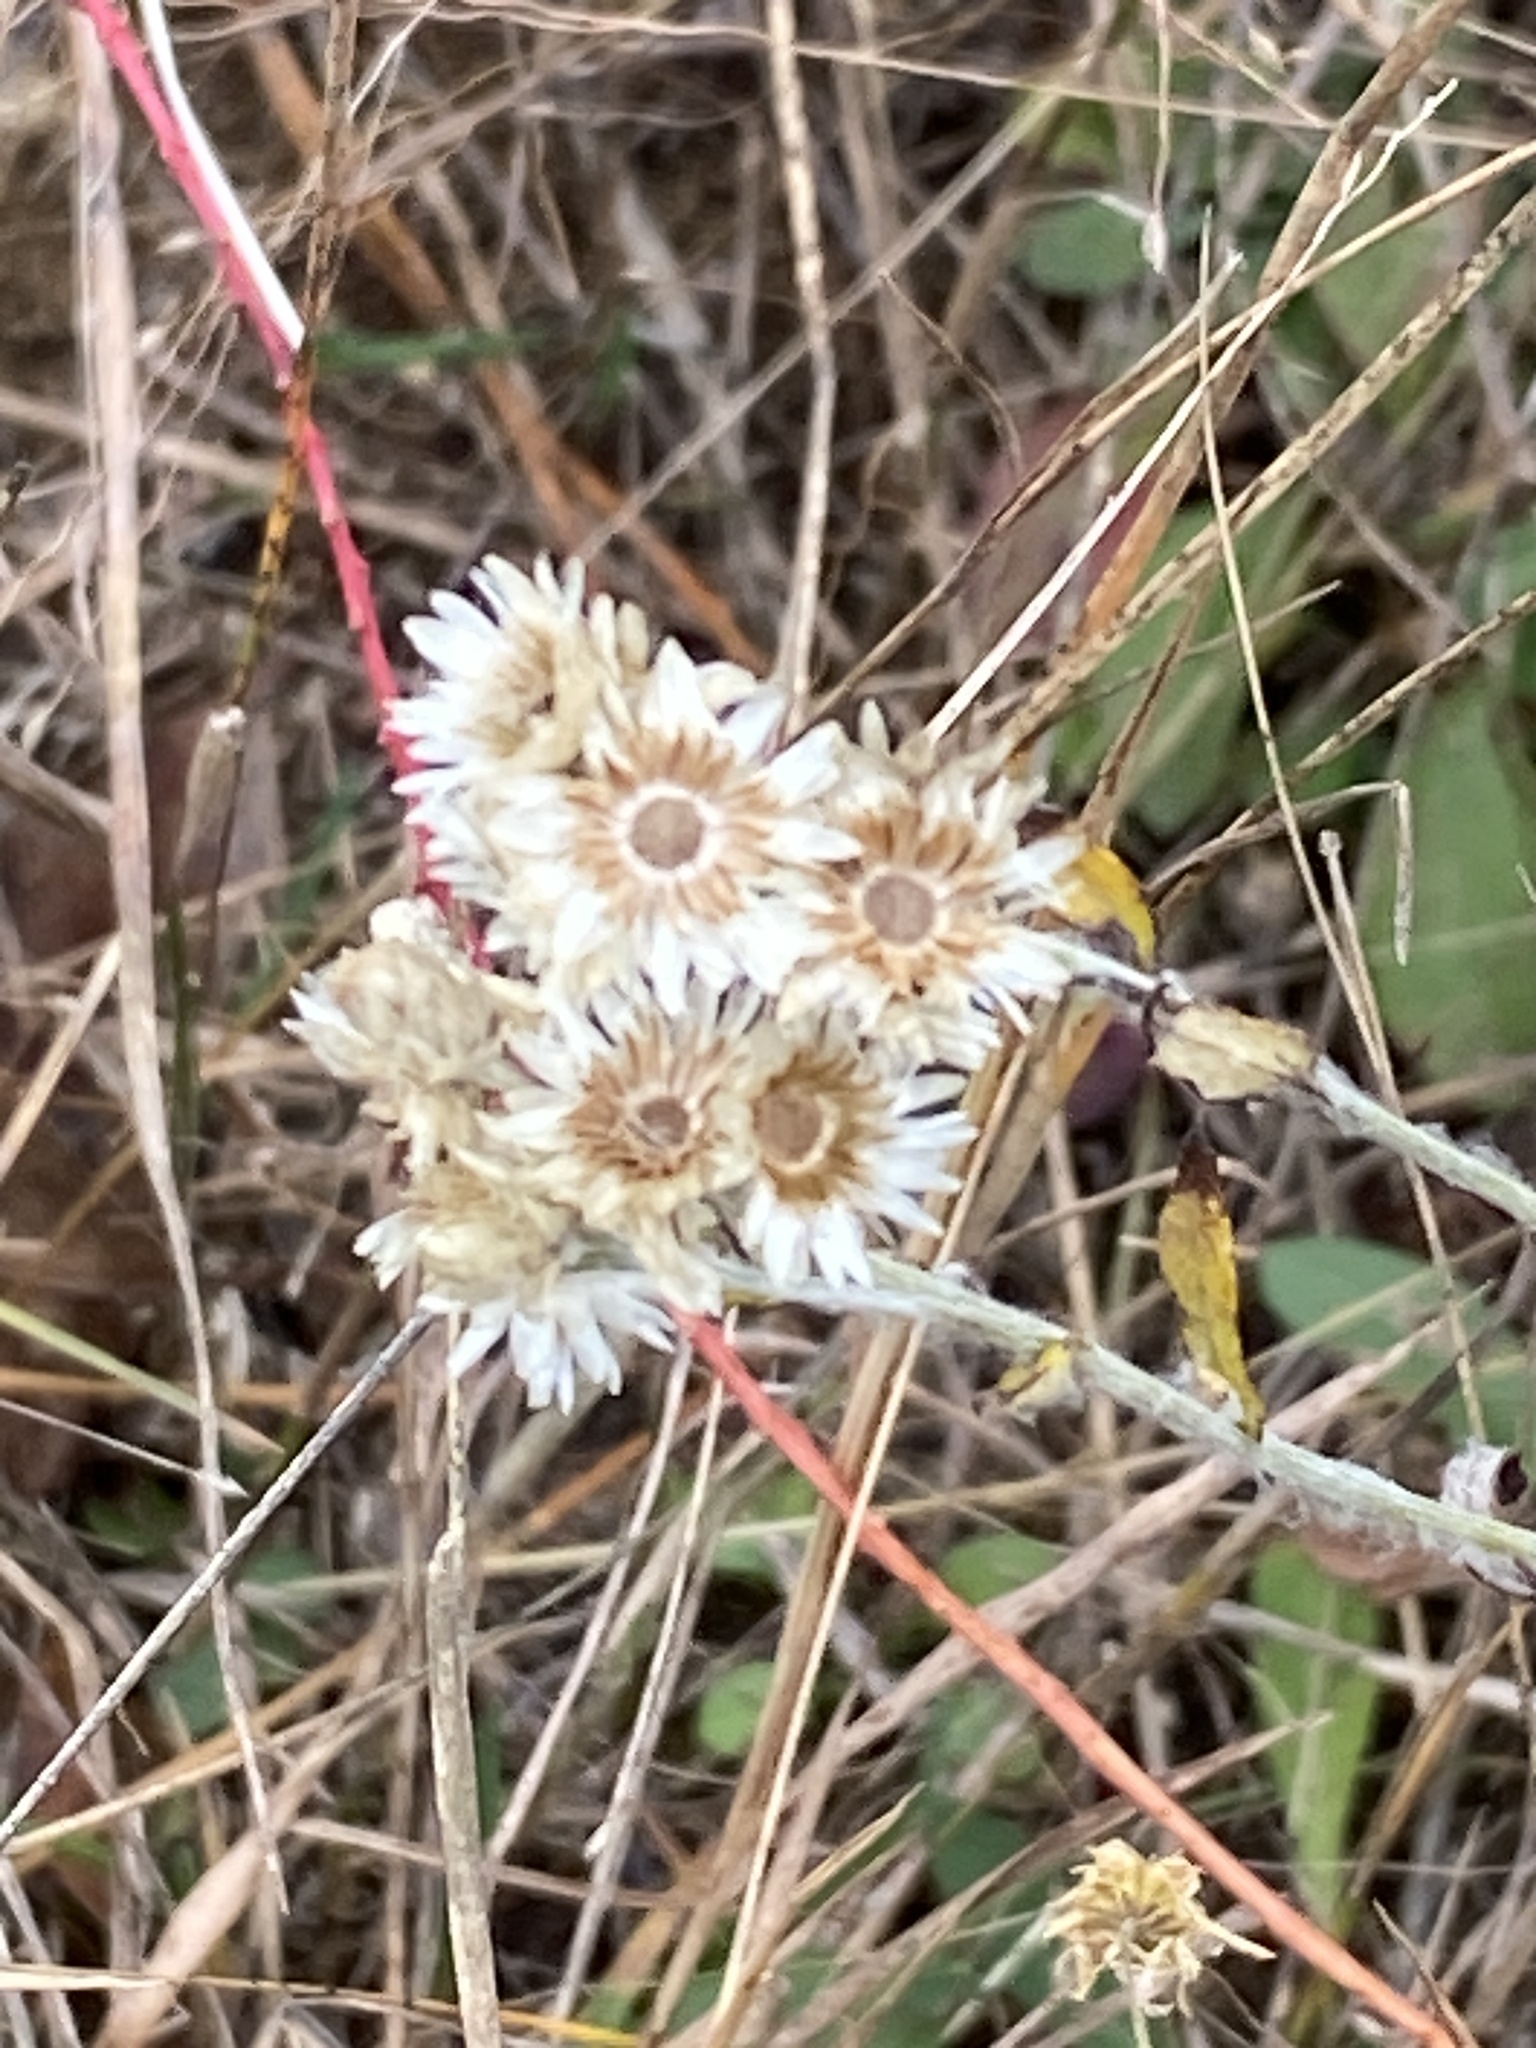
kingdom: Plantae
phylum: Tracheophyta
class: Magnoliopsida
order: Asterales
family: Asteraceae
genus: Pseudognaphalium
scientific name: Pseudognaphalium obtusifolium
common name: Eastern rabbit-tobacco
